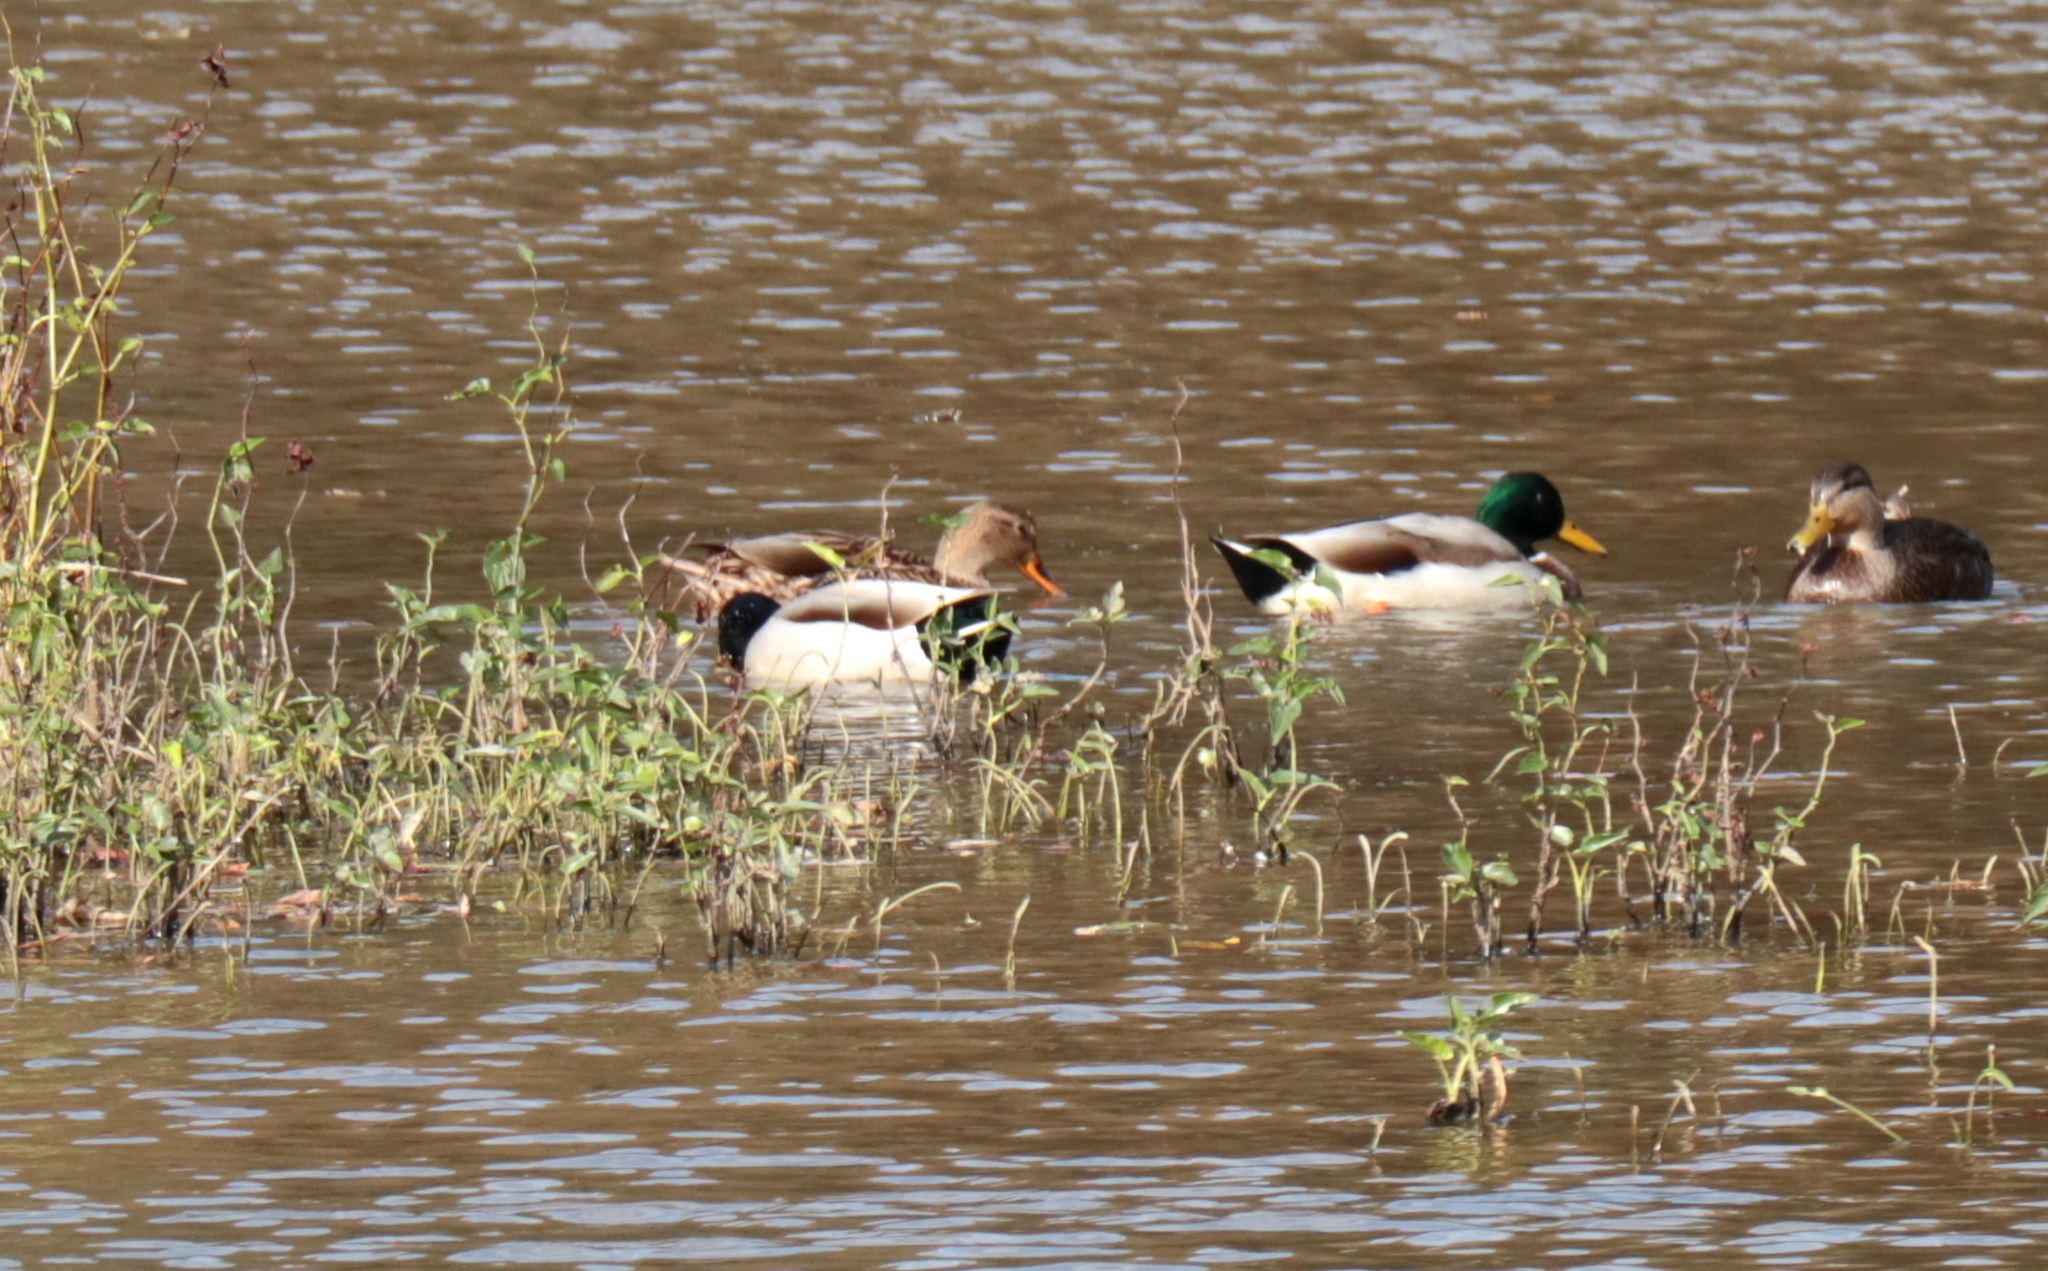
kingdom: Animalia
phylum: Chordata
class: Aves
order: Anseriformes
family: Anatidae
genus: Anas
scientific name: Anas platyrhynchos
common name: Mallard
